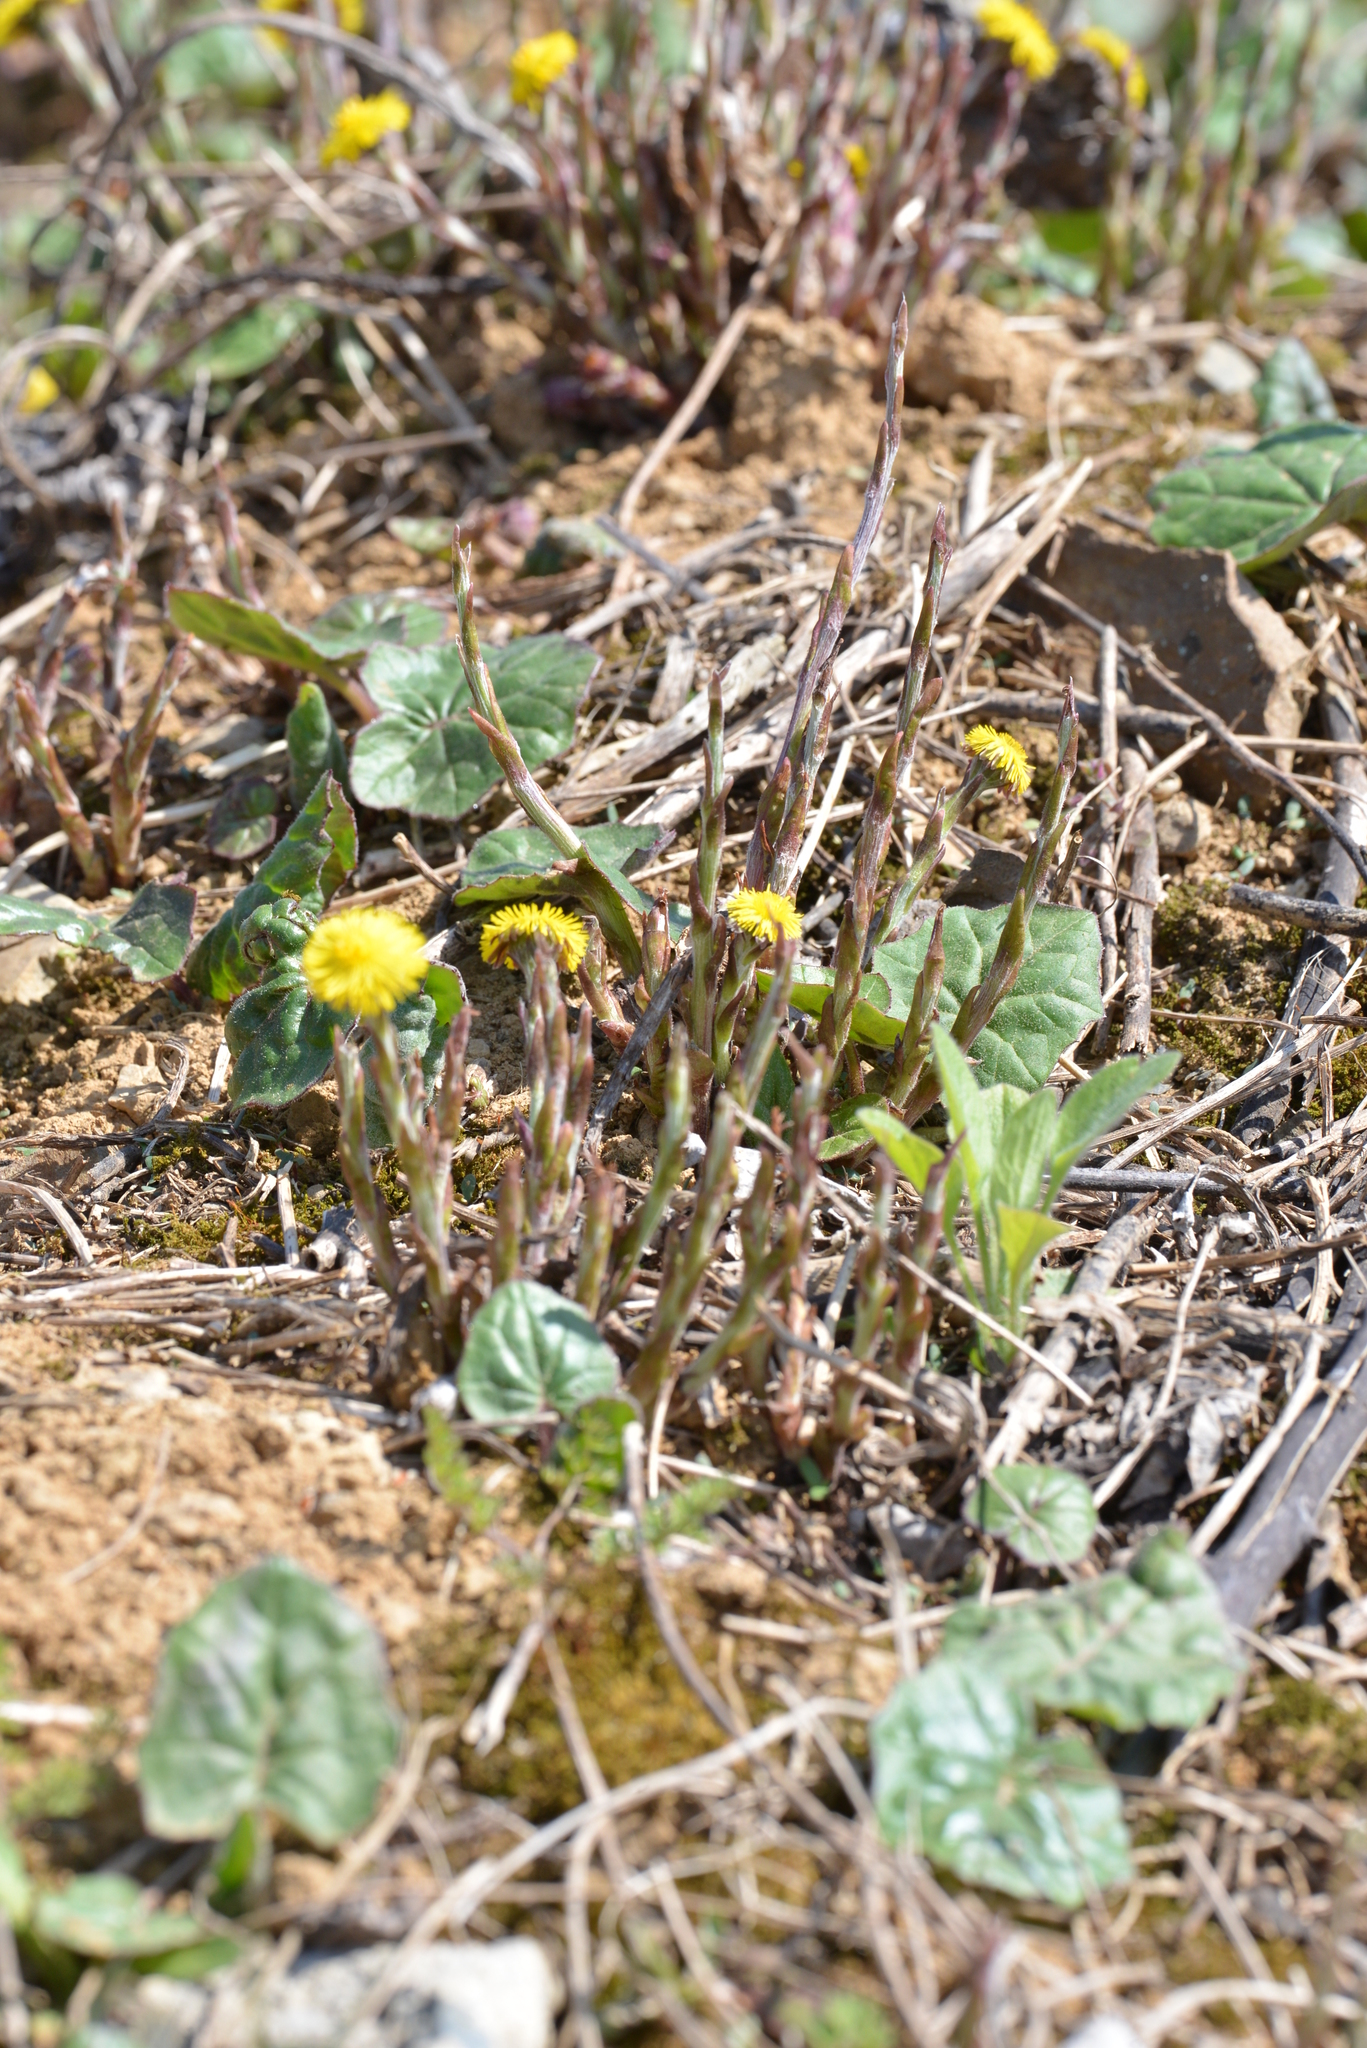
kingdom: Plantae
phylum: Tracheophyta
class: Magnoliopsida
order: Asterales
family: Asteraceae
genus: Tussilago
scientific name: Tussilago farfara
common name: Coltsfoot
